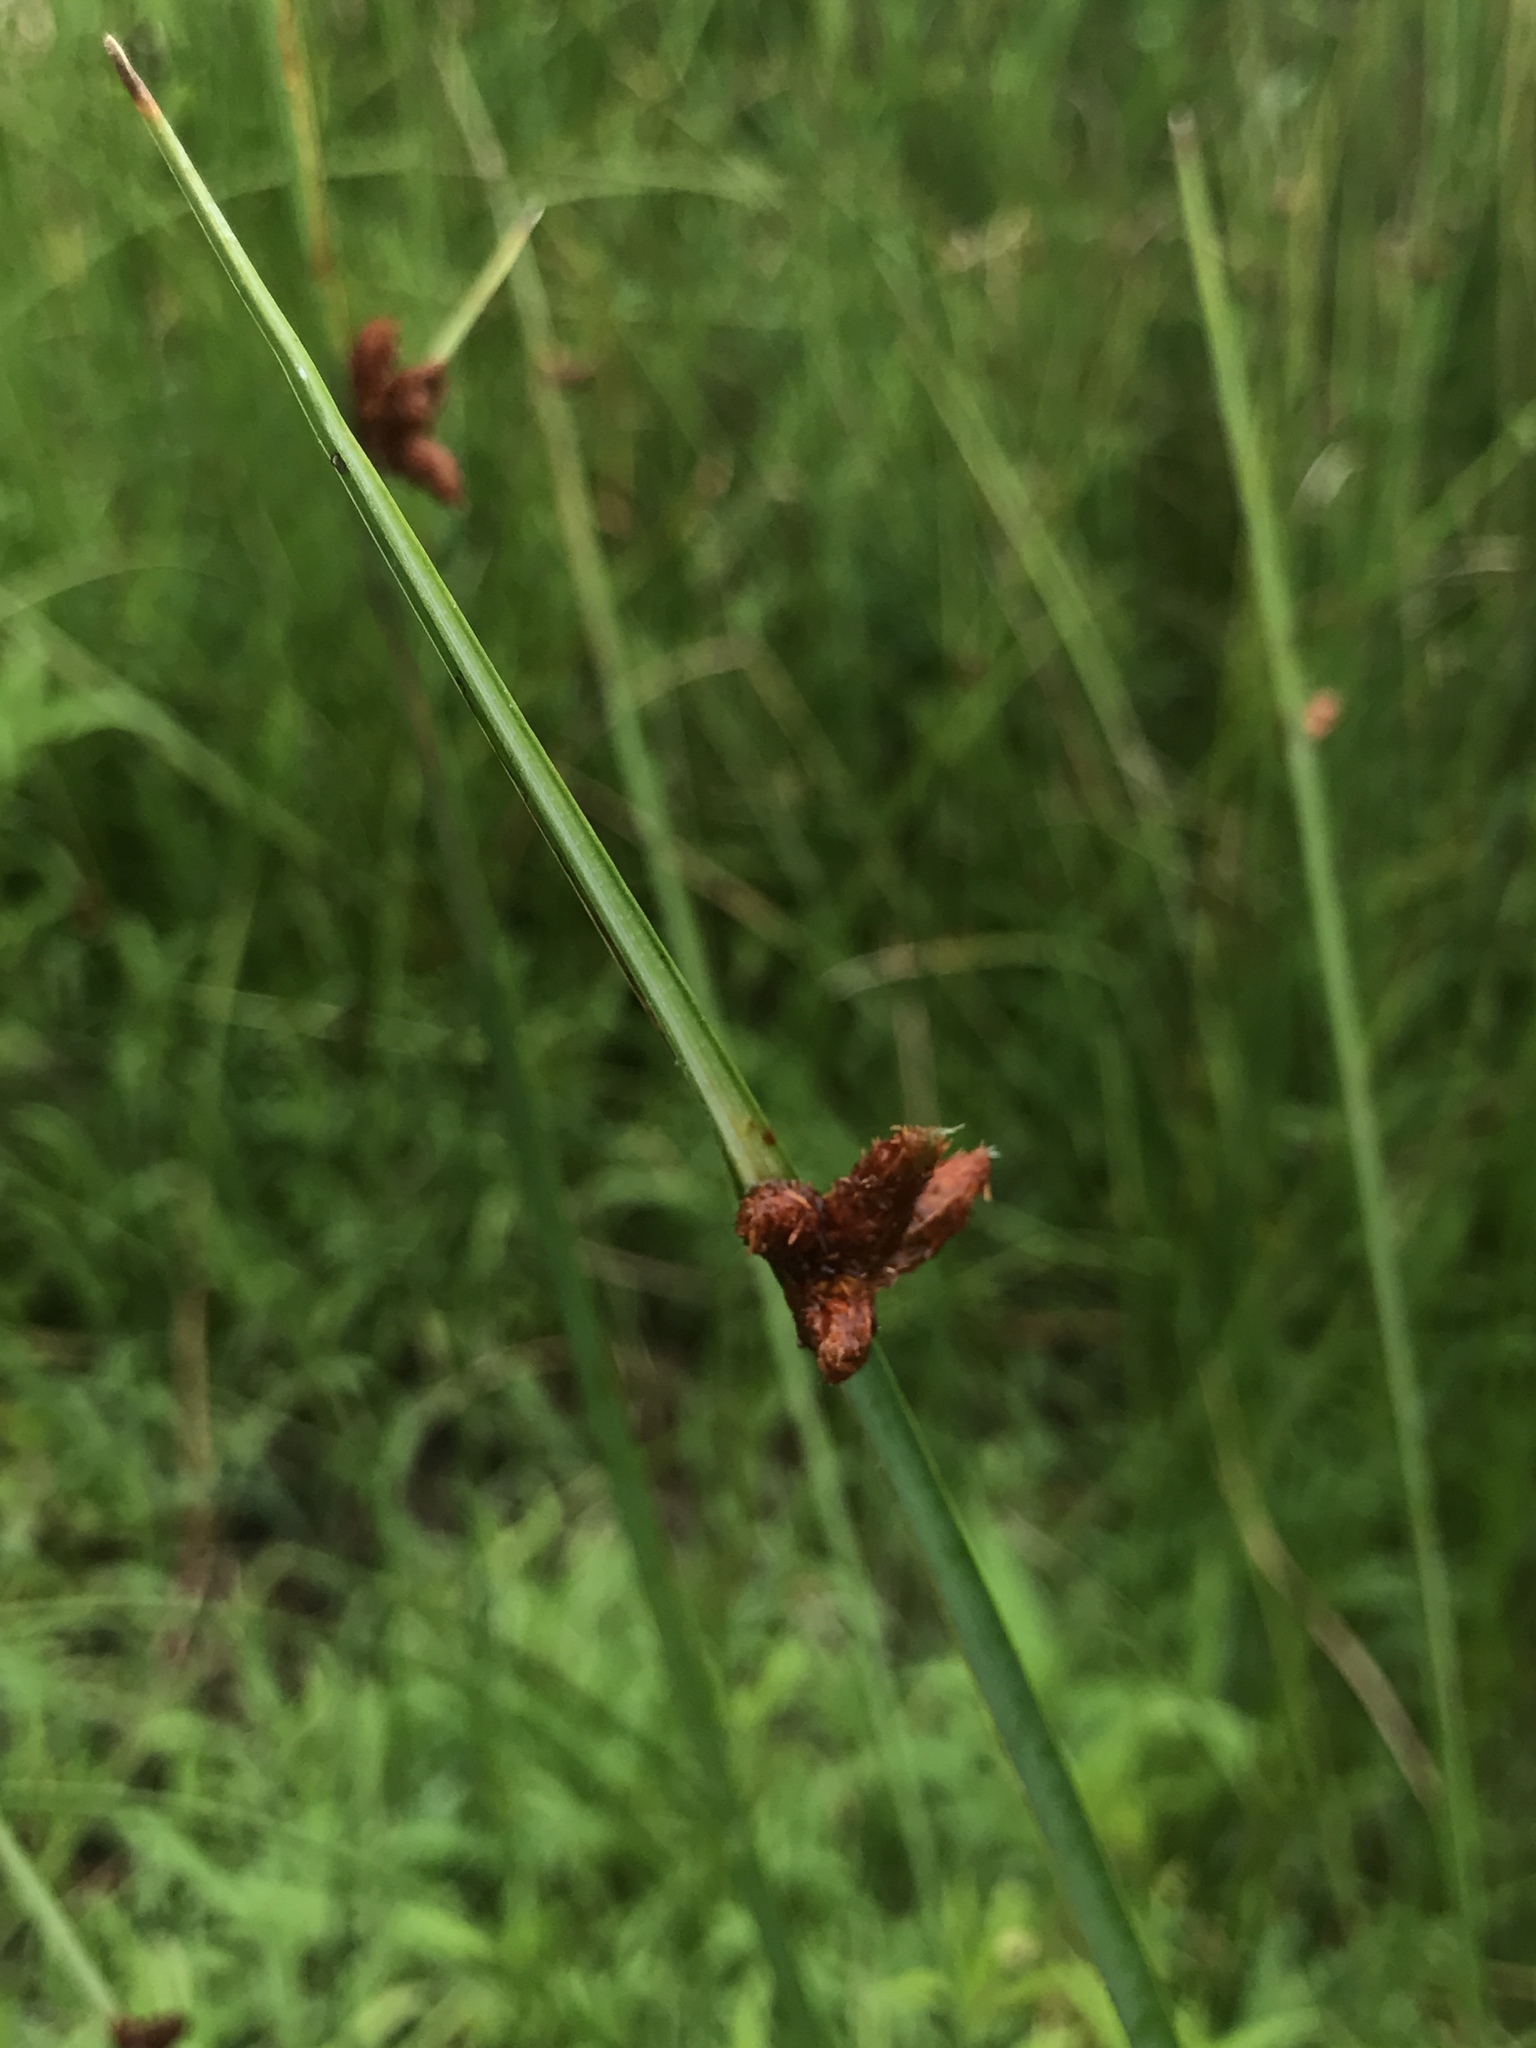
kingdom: Plantae
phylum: Tracheophyta
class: Liliopsida
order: Poales
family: Cyperaceae
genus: Schoenoplectus
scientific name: Schoenoplectus pungens
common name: Sharp club-rush
